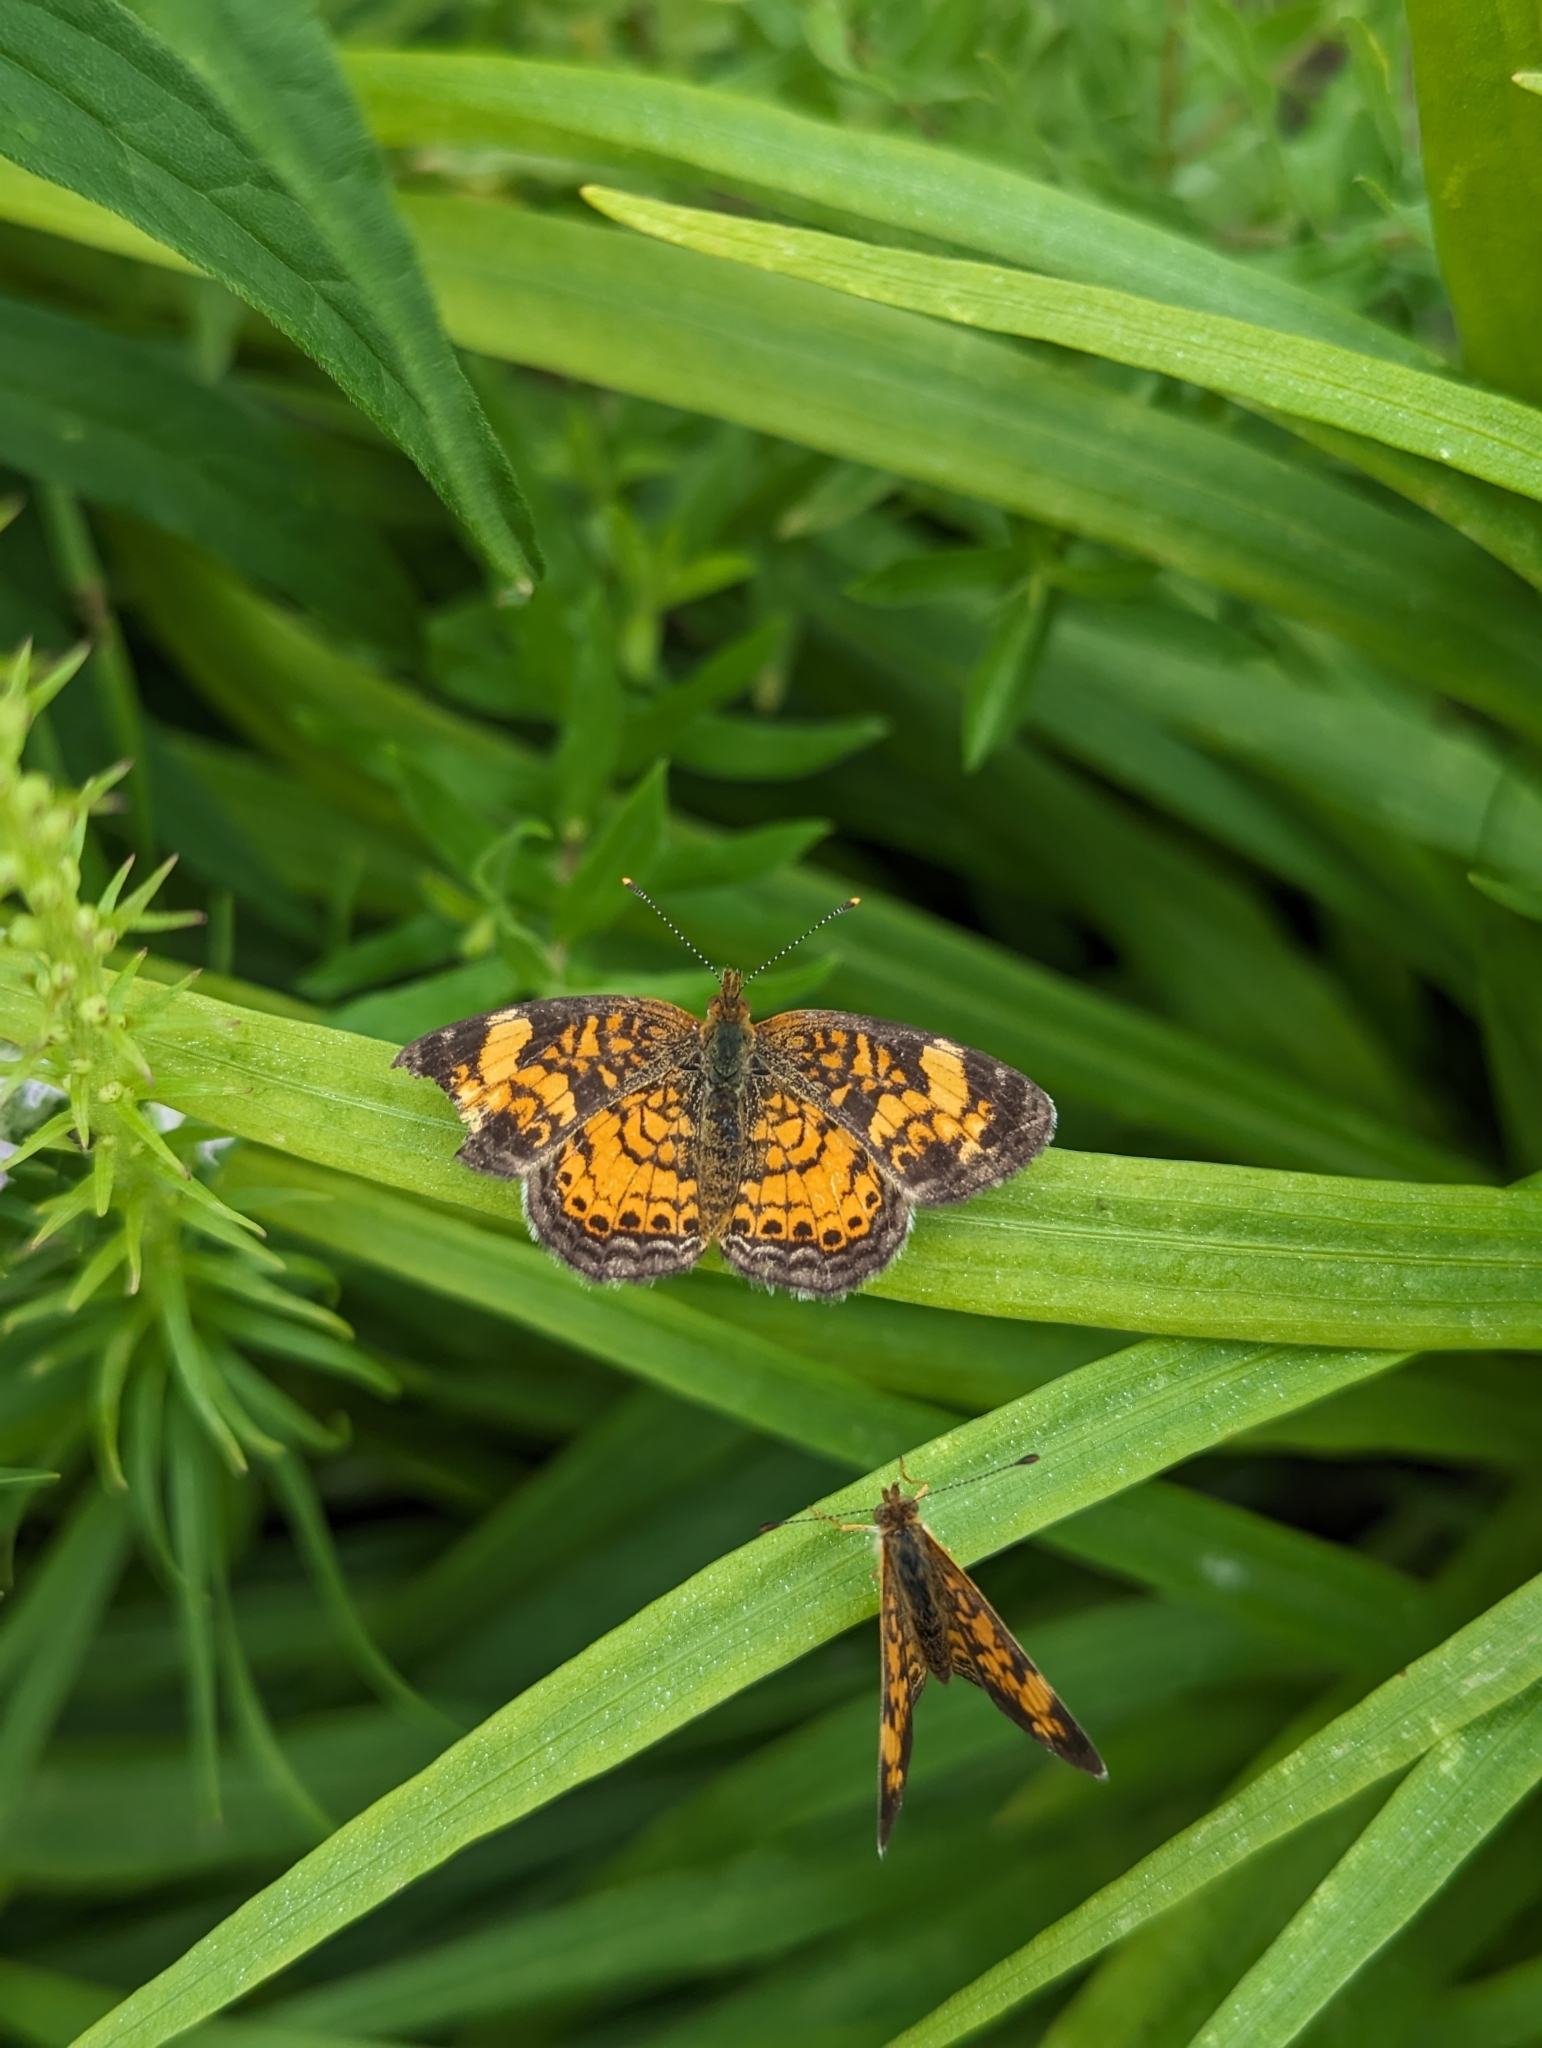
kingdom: Animalia
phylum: Arthropoda
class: Insecta
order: Lepidoptera
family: Nymphalidae
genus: Phyciodes
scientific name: Phyciodes tharos
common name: Pearl crescent
